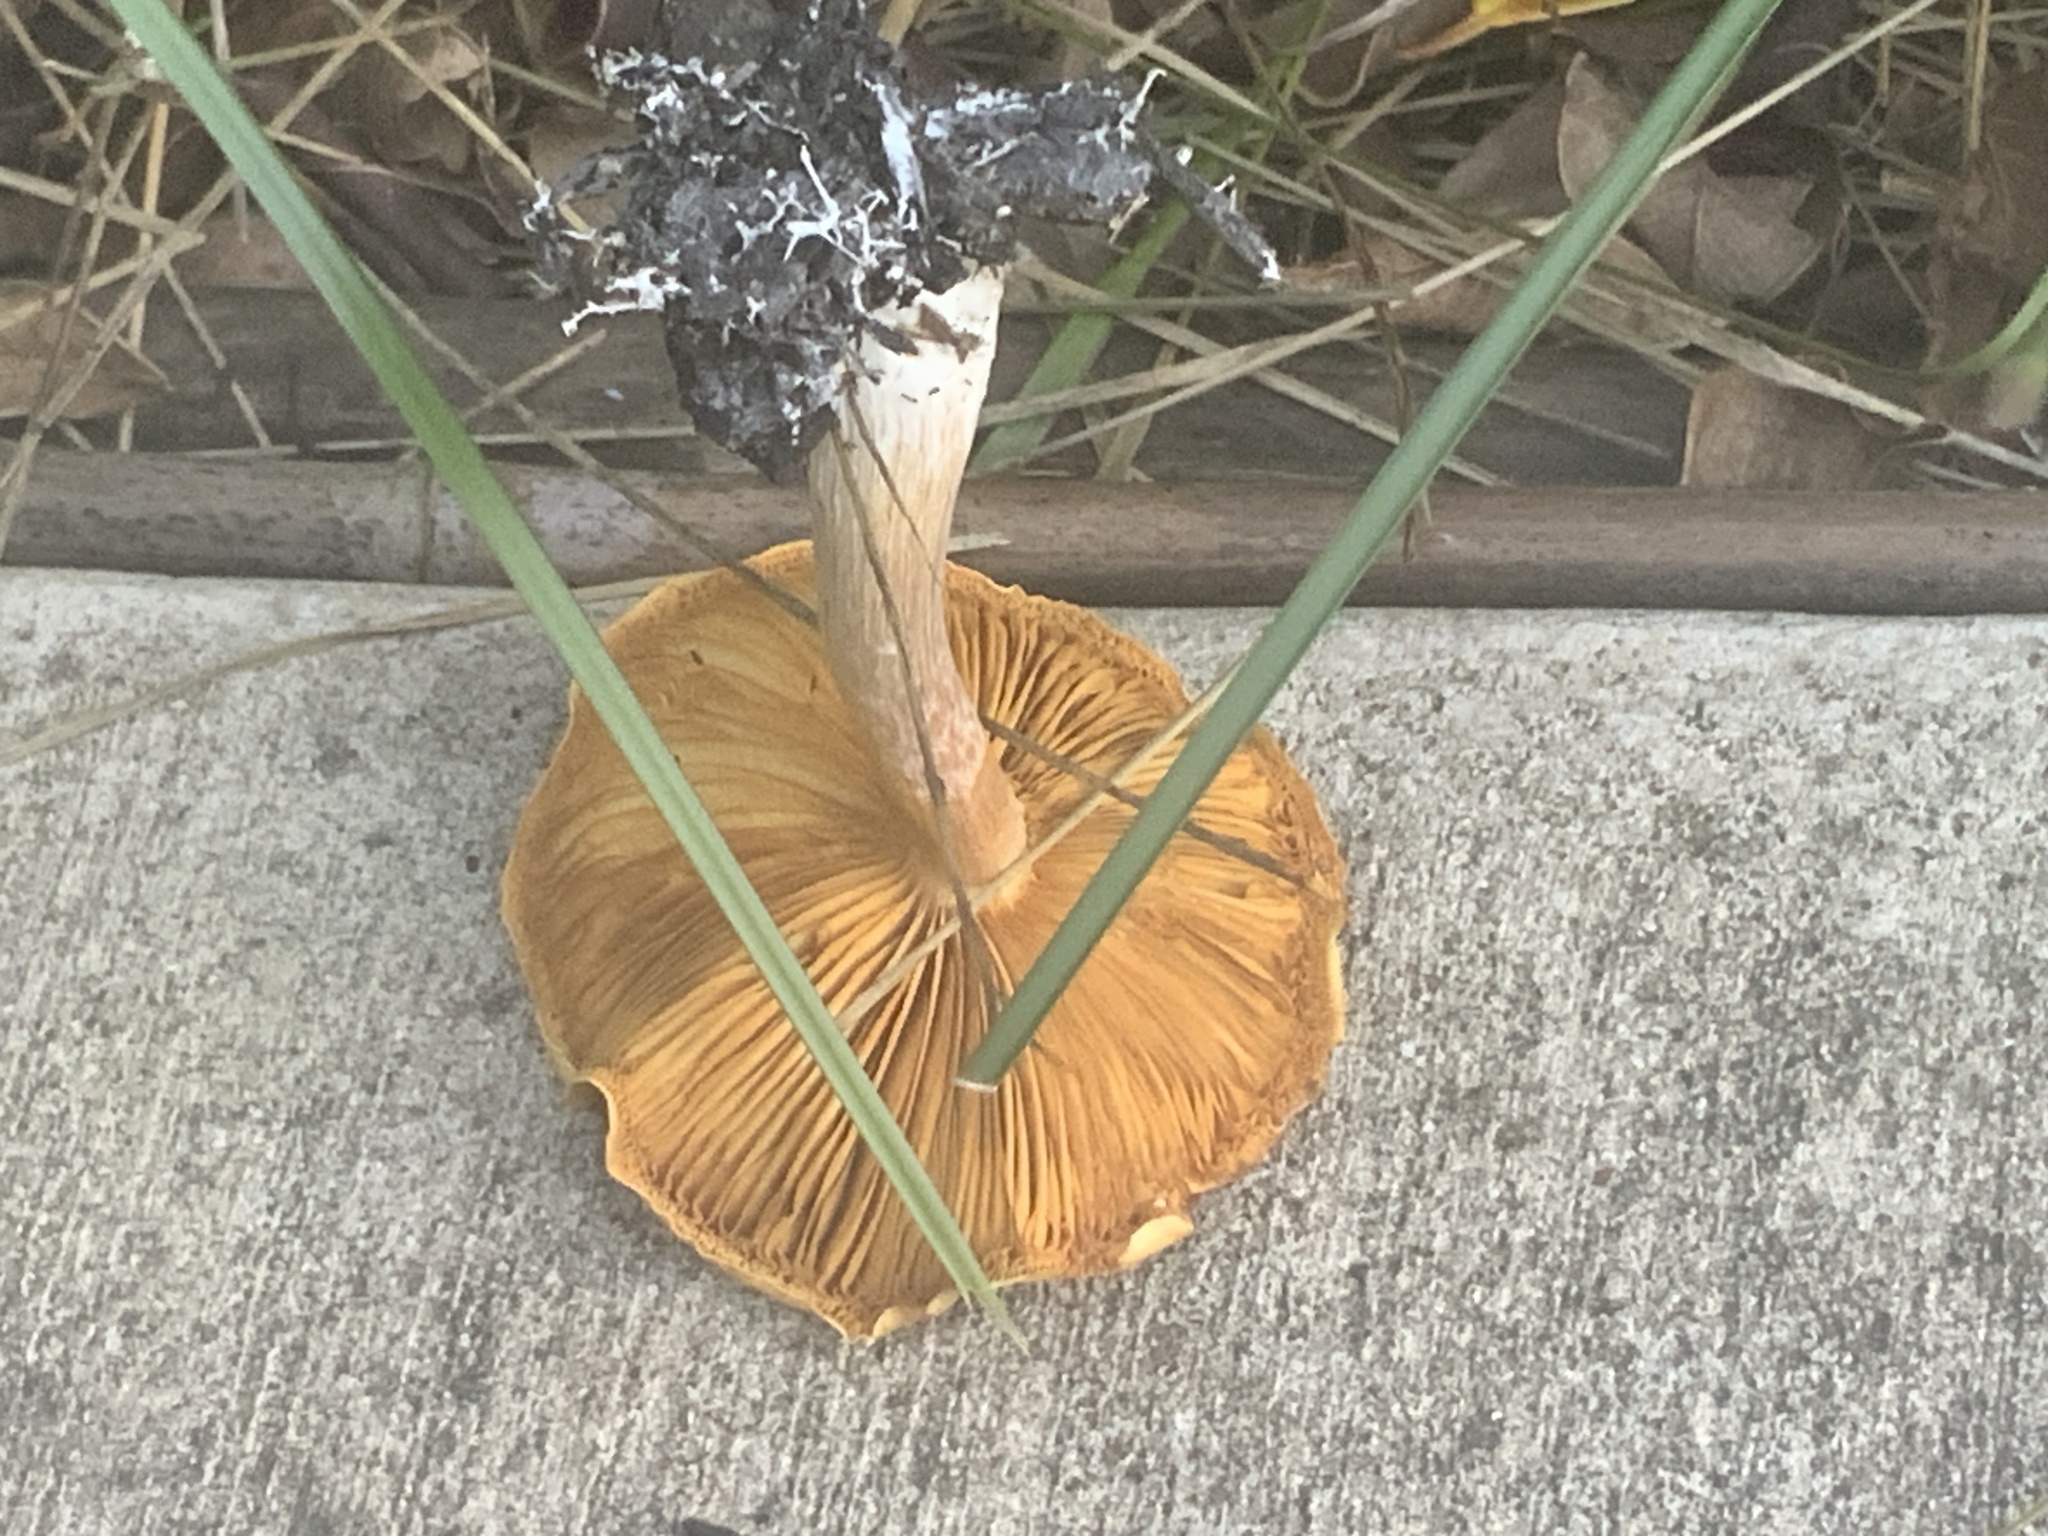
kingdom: Fungi
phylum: Basidiomycota
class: Agaricomycetes
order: Agaricales
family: Hymenogastraceae
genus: Gymnopilus
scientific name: Gymnopilus junonius
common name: Spectacular rustgill
